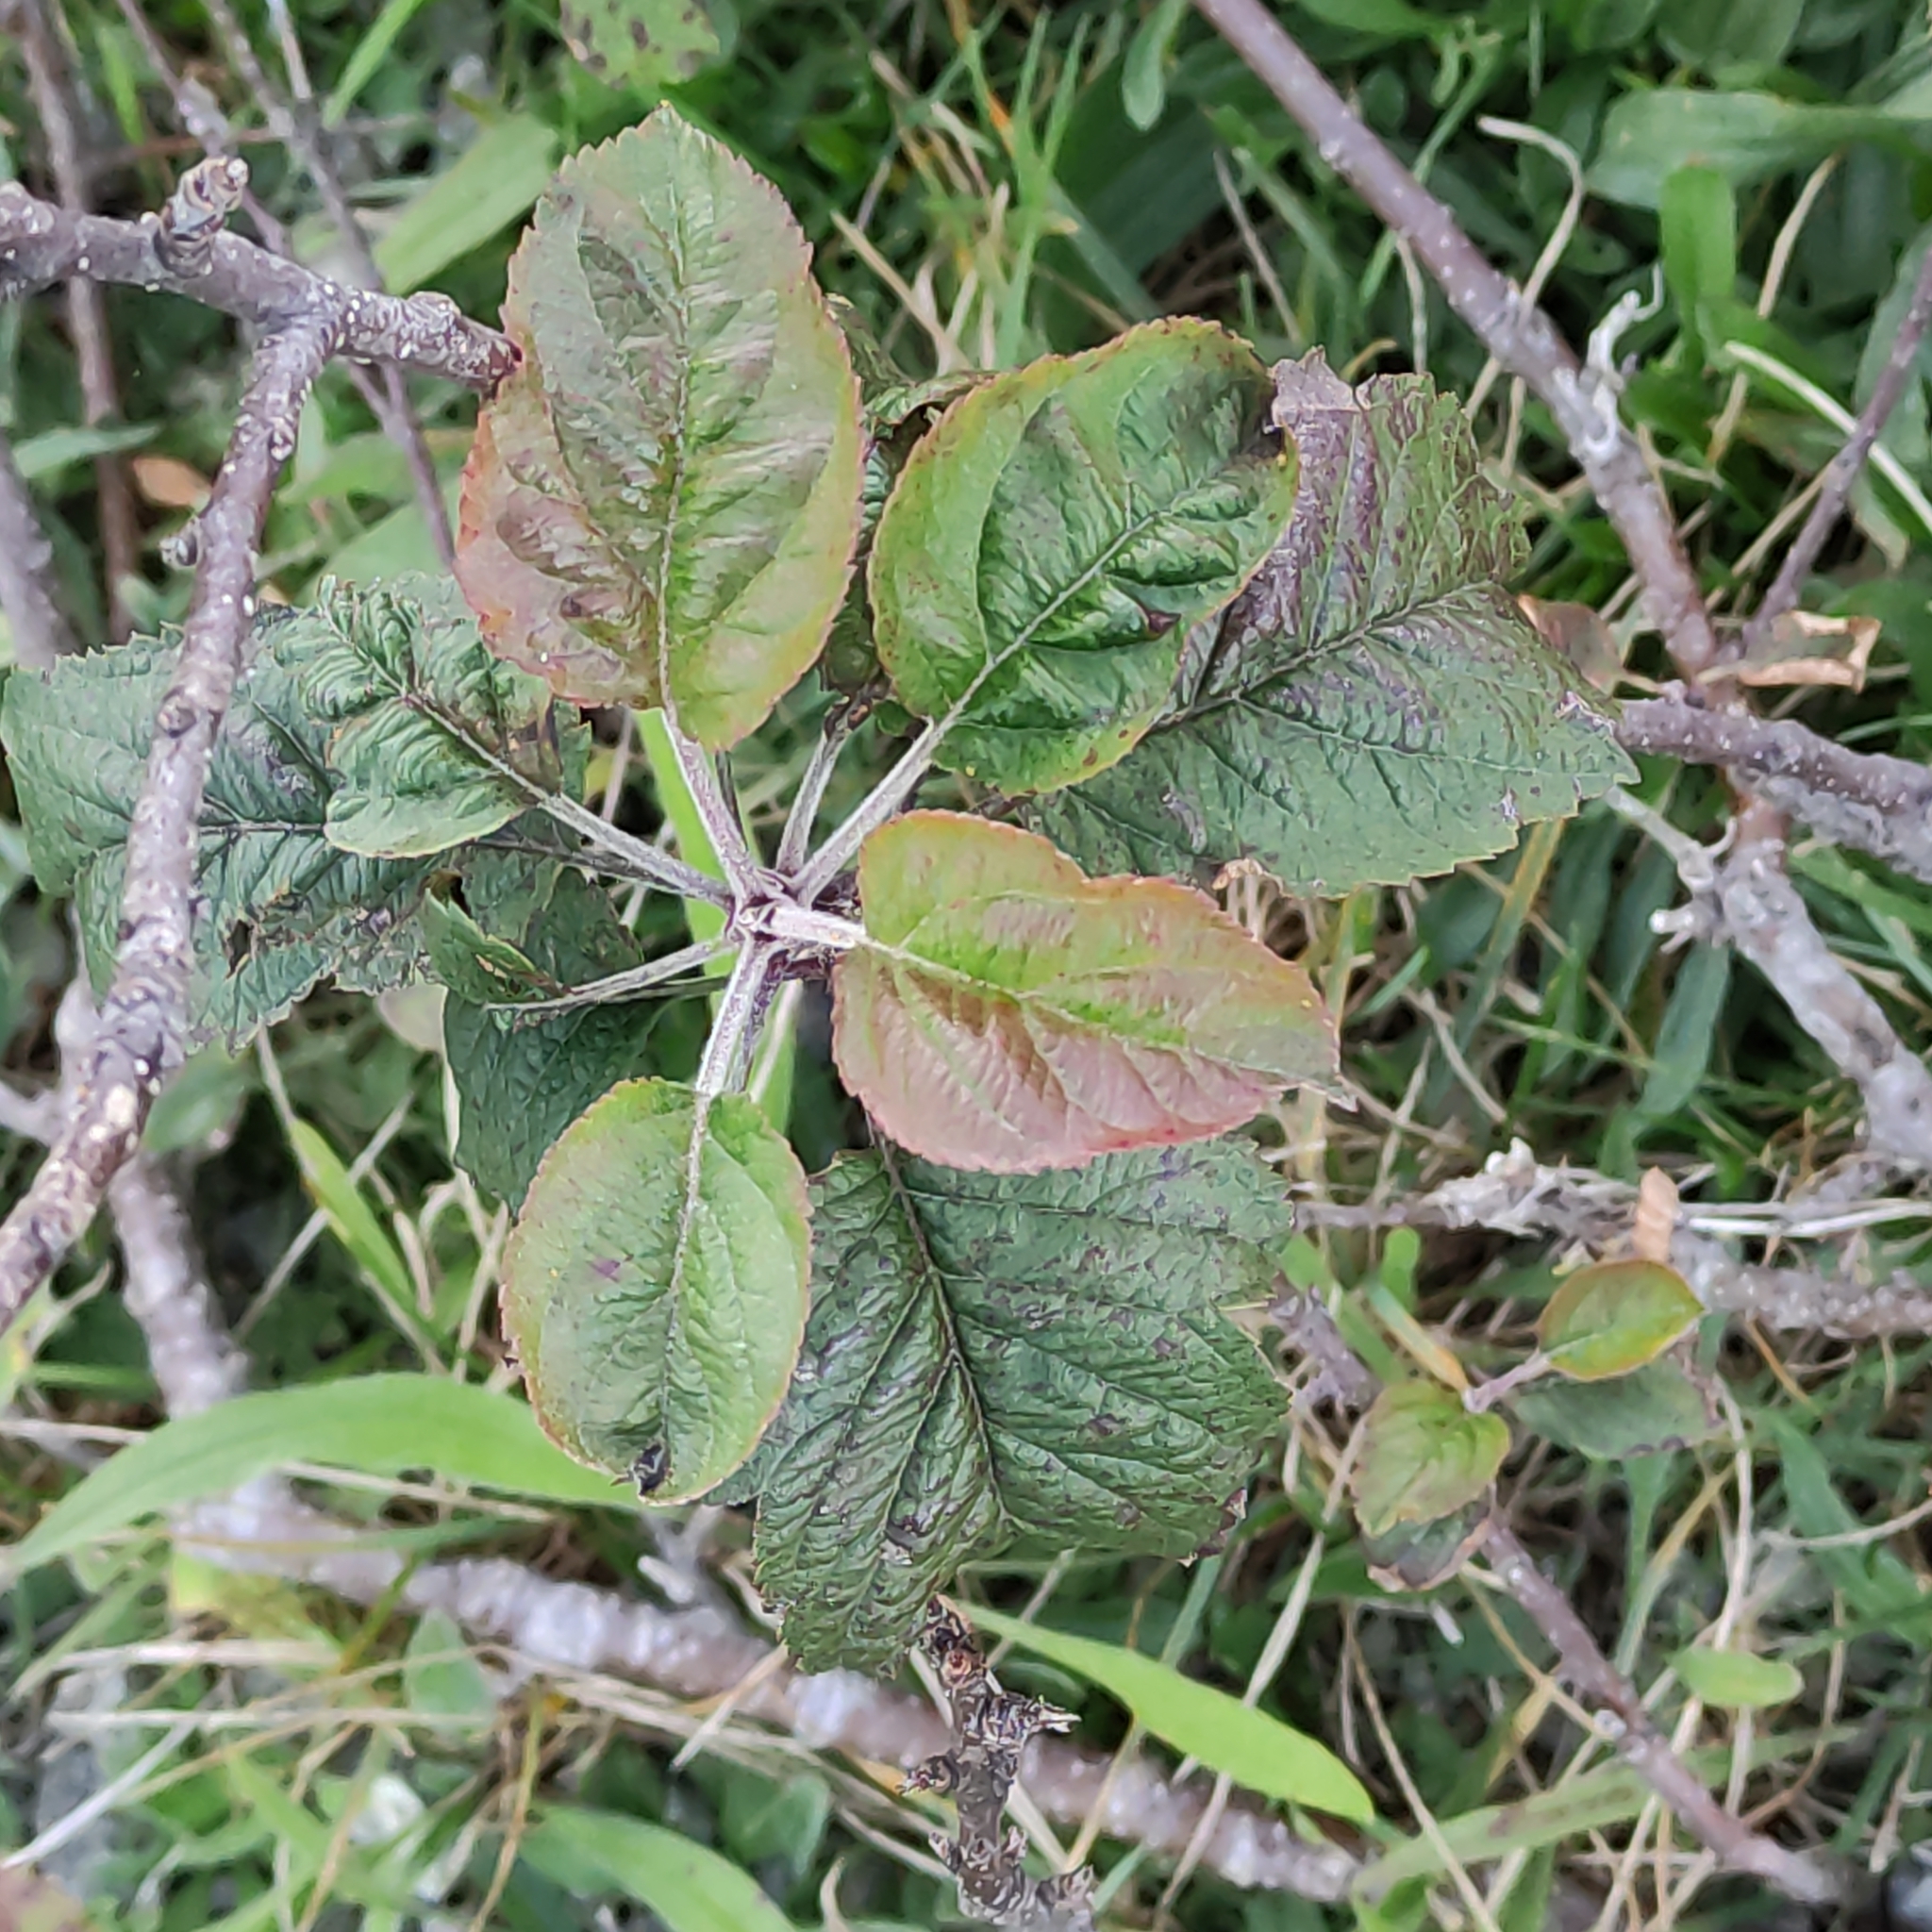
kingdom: Plantae
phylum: Tracheophyta
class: Magnoliopsida
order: Rosales
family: Rosaceae
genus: Malus
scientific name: Malus domestica
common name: Apple
